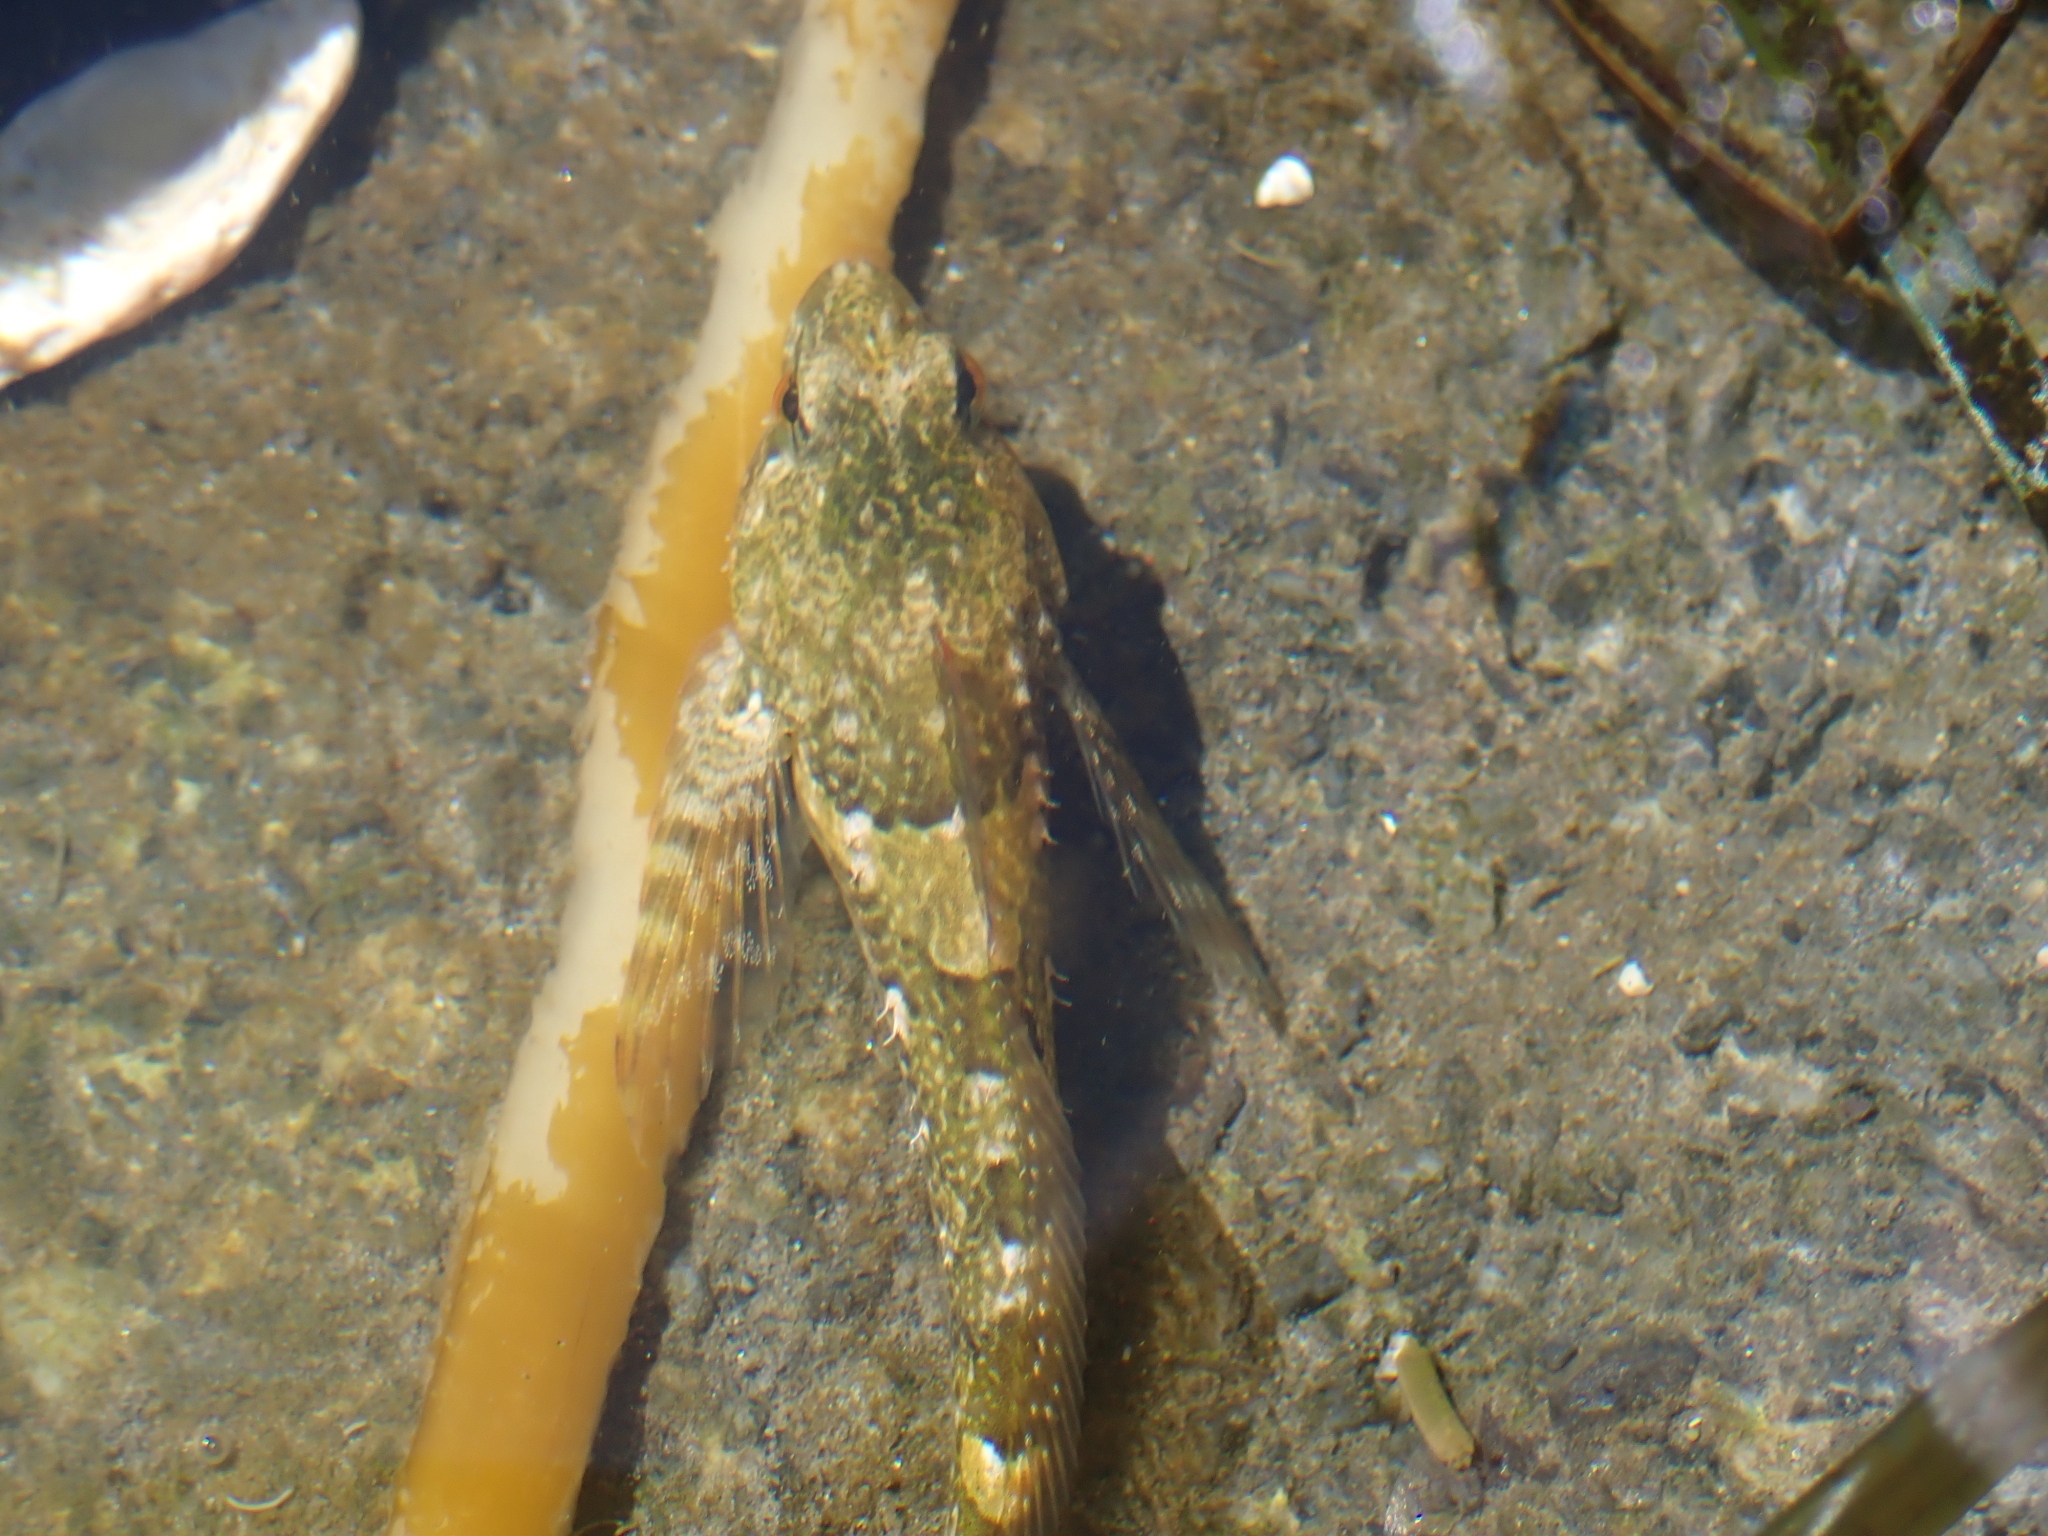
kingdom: Animalia
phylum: Chordata
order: Scorpaeniformes
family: Cottidae
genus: Oligocottus
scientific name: Oligocottus maculosus
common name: Tidepool sculpin
